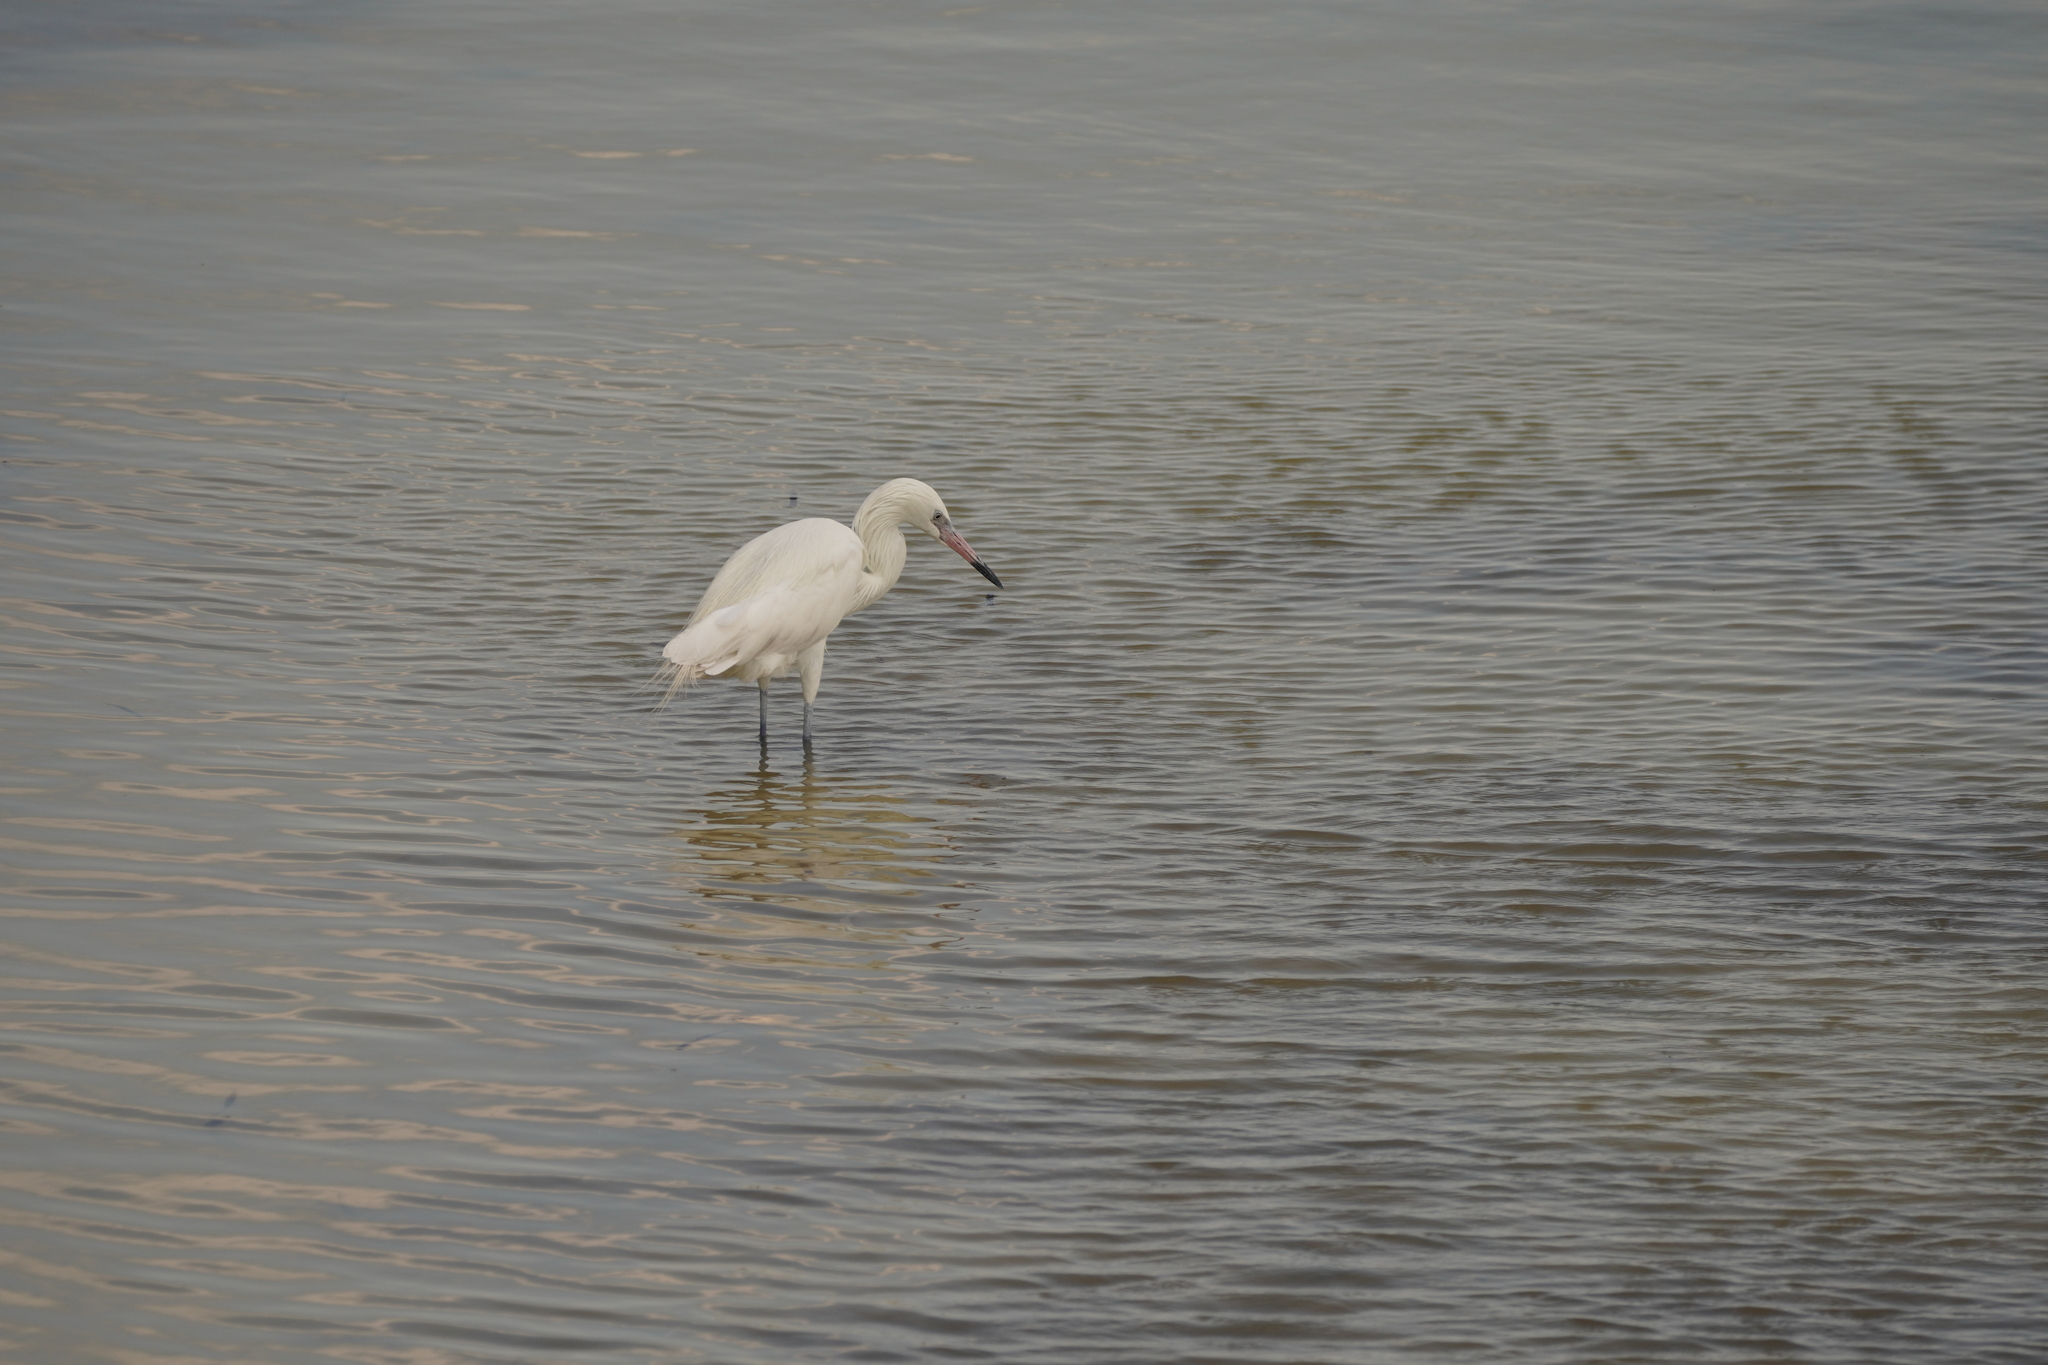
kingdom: Animalia
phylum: Chordata
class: Aves
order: Pelecaniformes
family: Ardeidae
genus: Egretta
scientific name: Egretta rufescens
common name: Reddish egret
